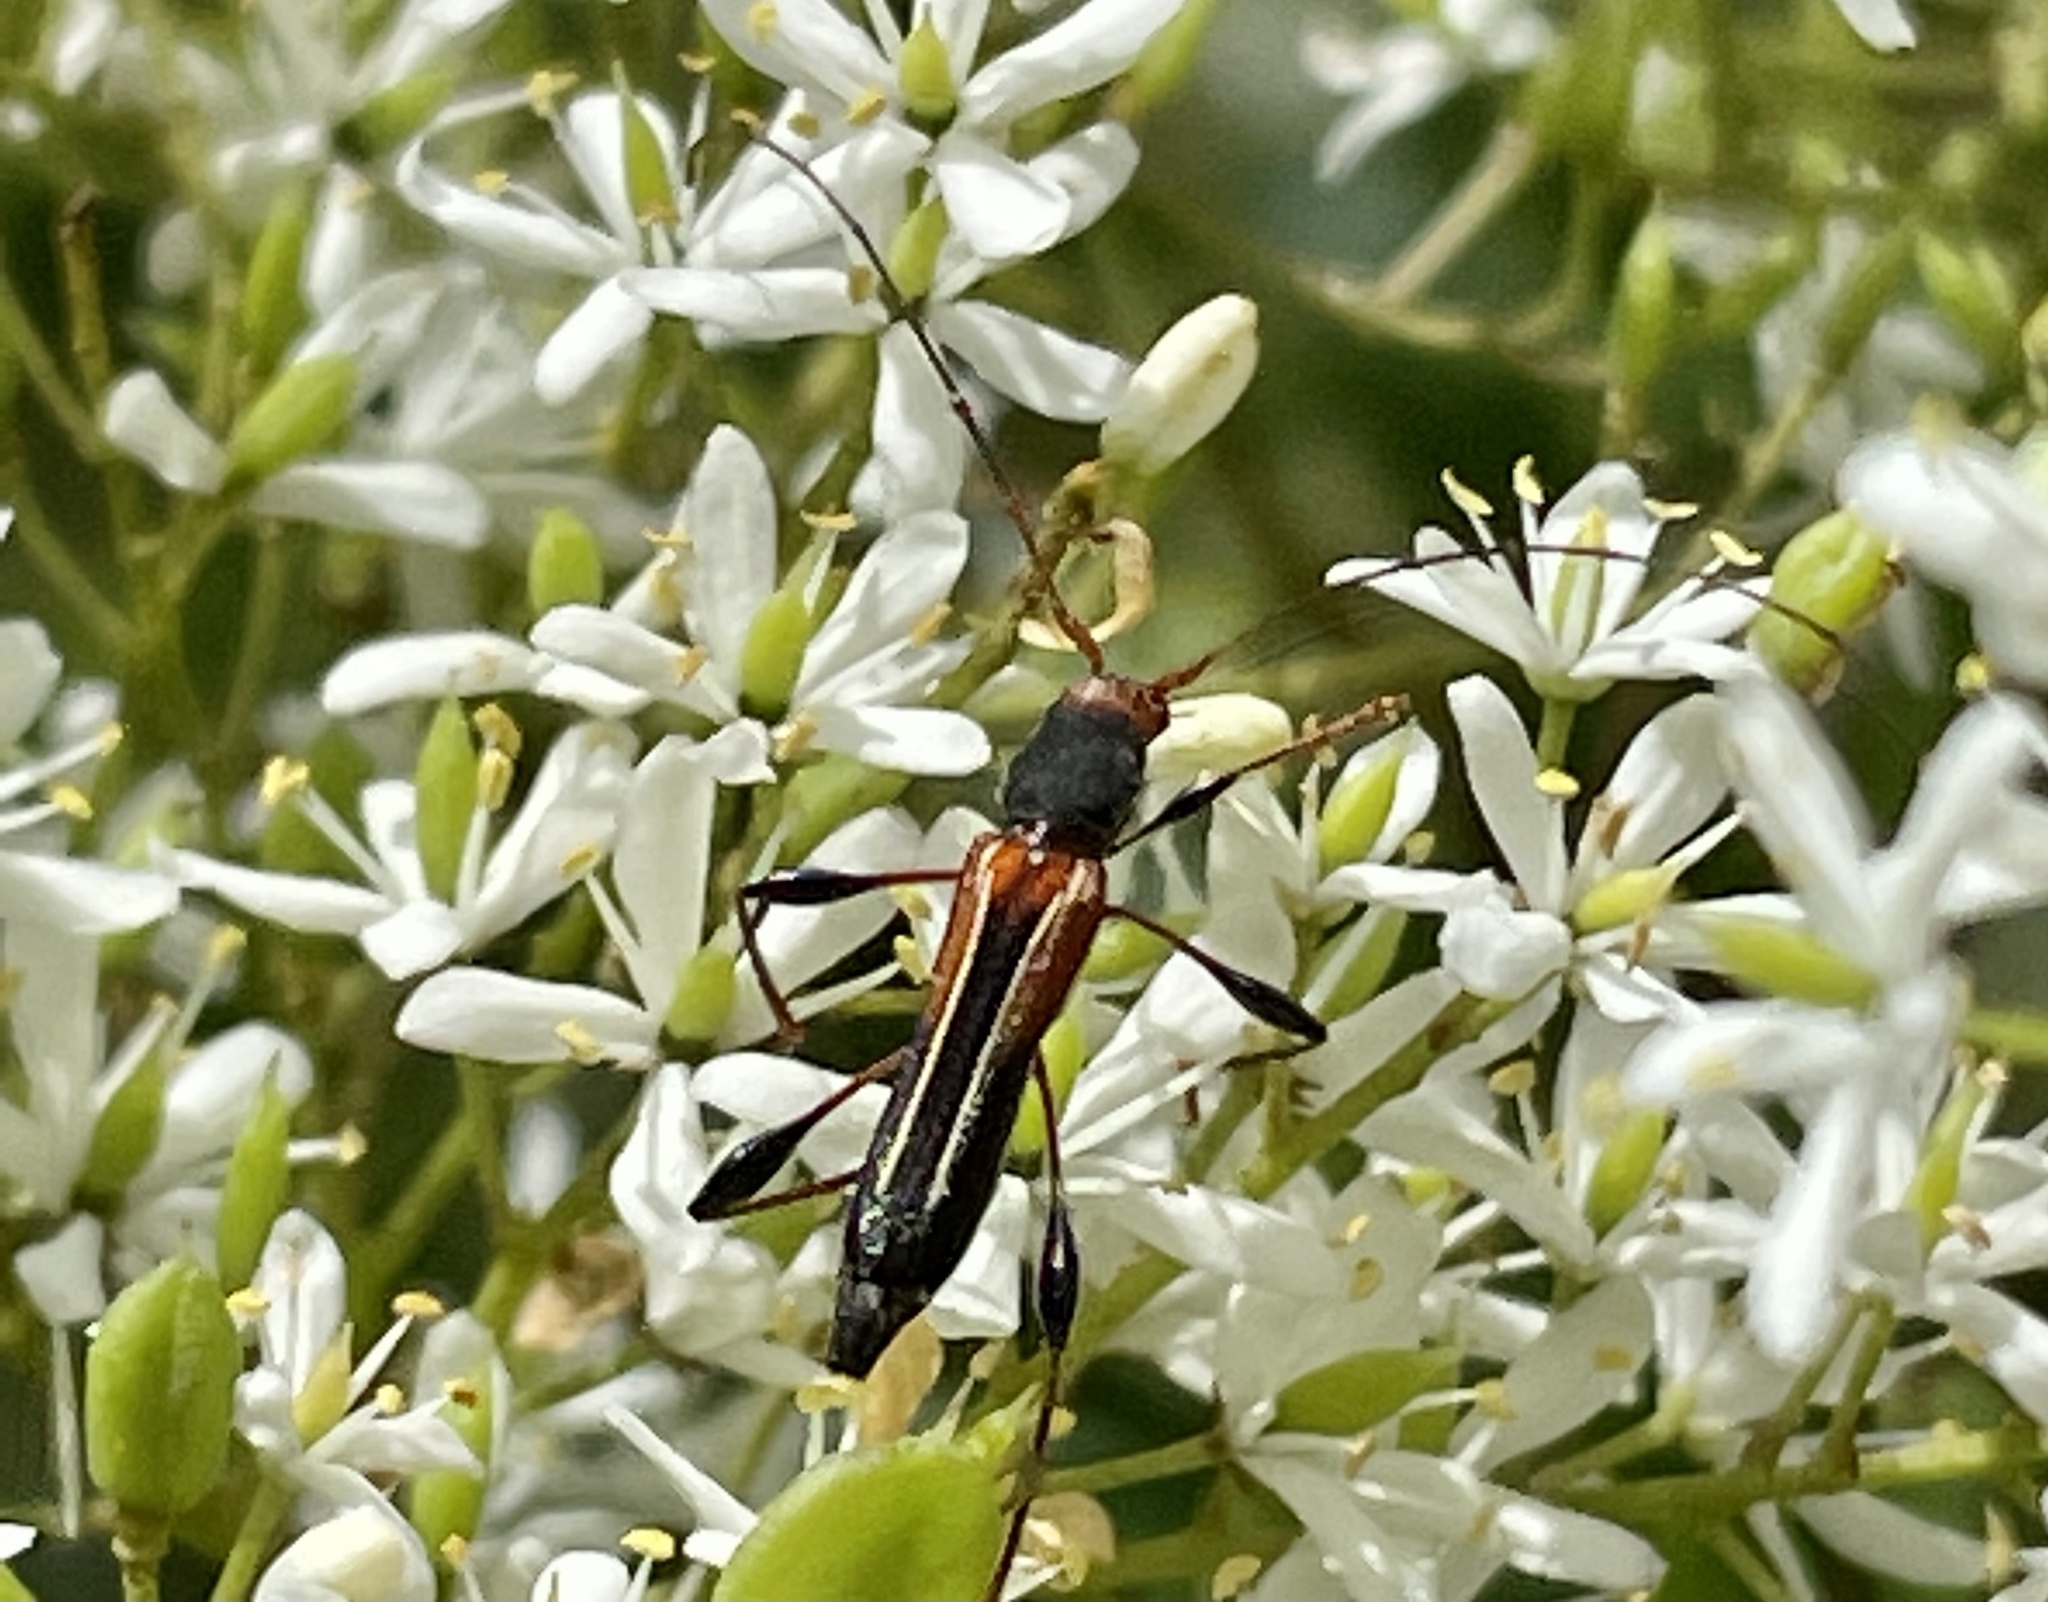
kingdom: Animalia
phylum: Arthropoda
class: Insecta
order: Coleoptera
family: Cerambycidae
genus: Amphirhoe
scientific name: Amphirhoe sloanei
